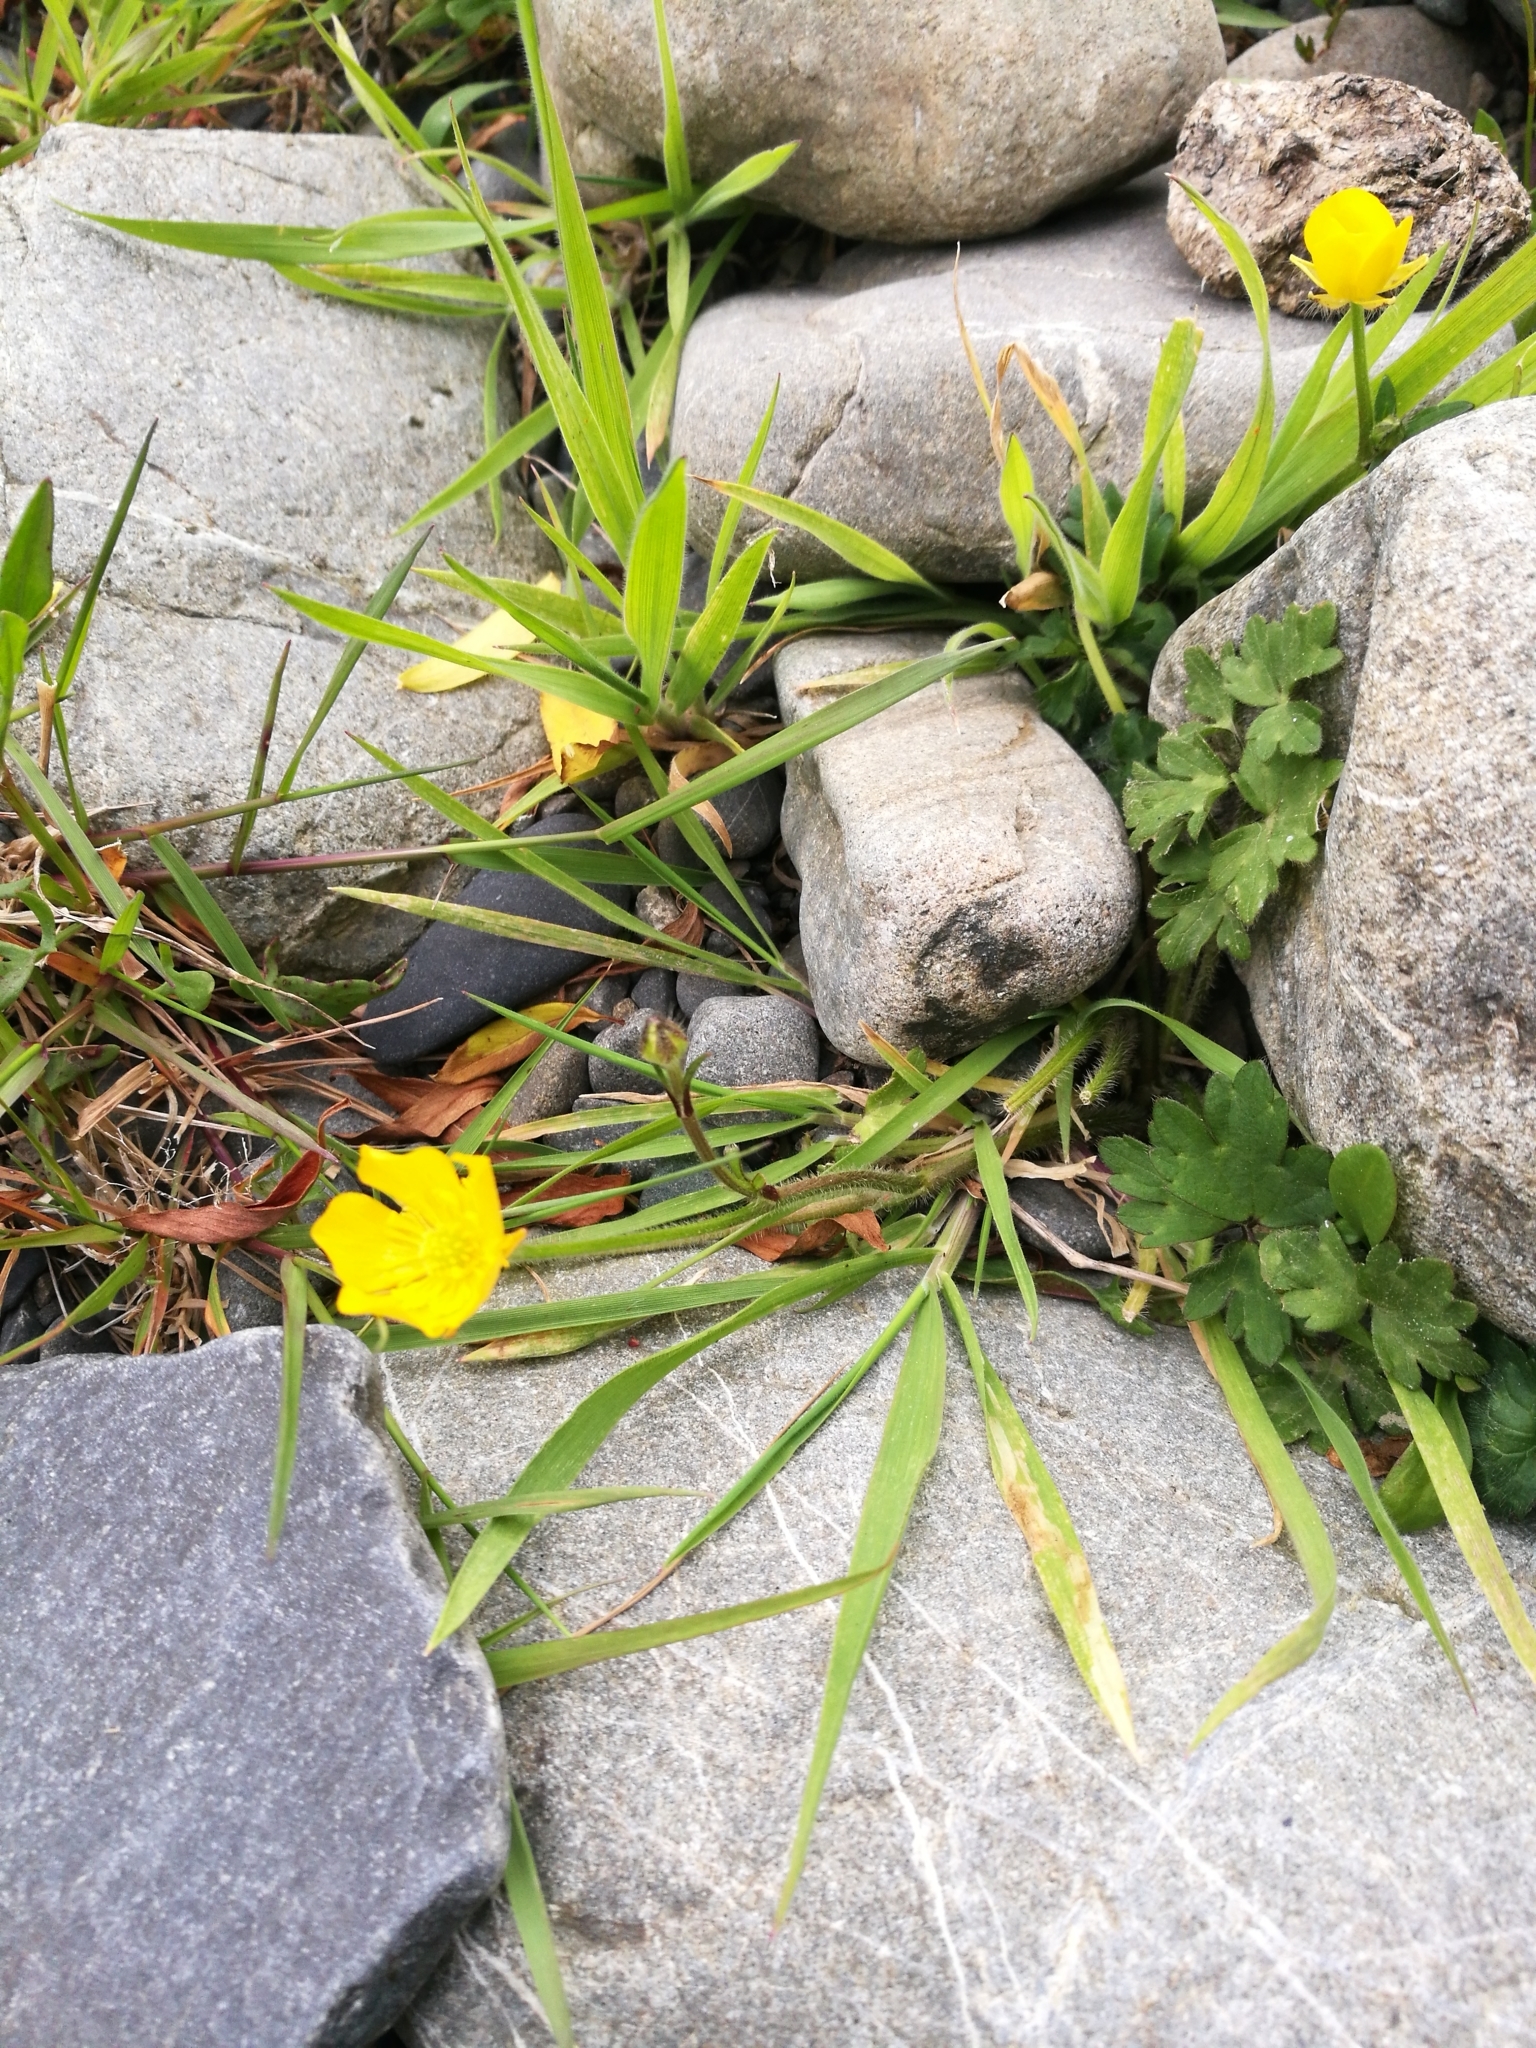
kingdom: Plantae
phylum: Tracheophyta
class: Magnoliopsida
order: Ranunculales
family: Ranunculaceae
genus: Ranunculus
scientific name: Ranunculus repens
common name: Creeping buttercup
